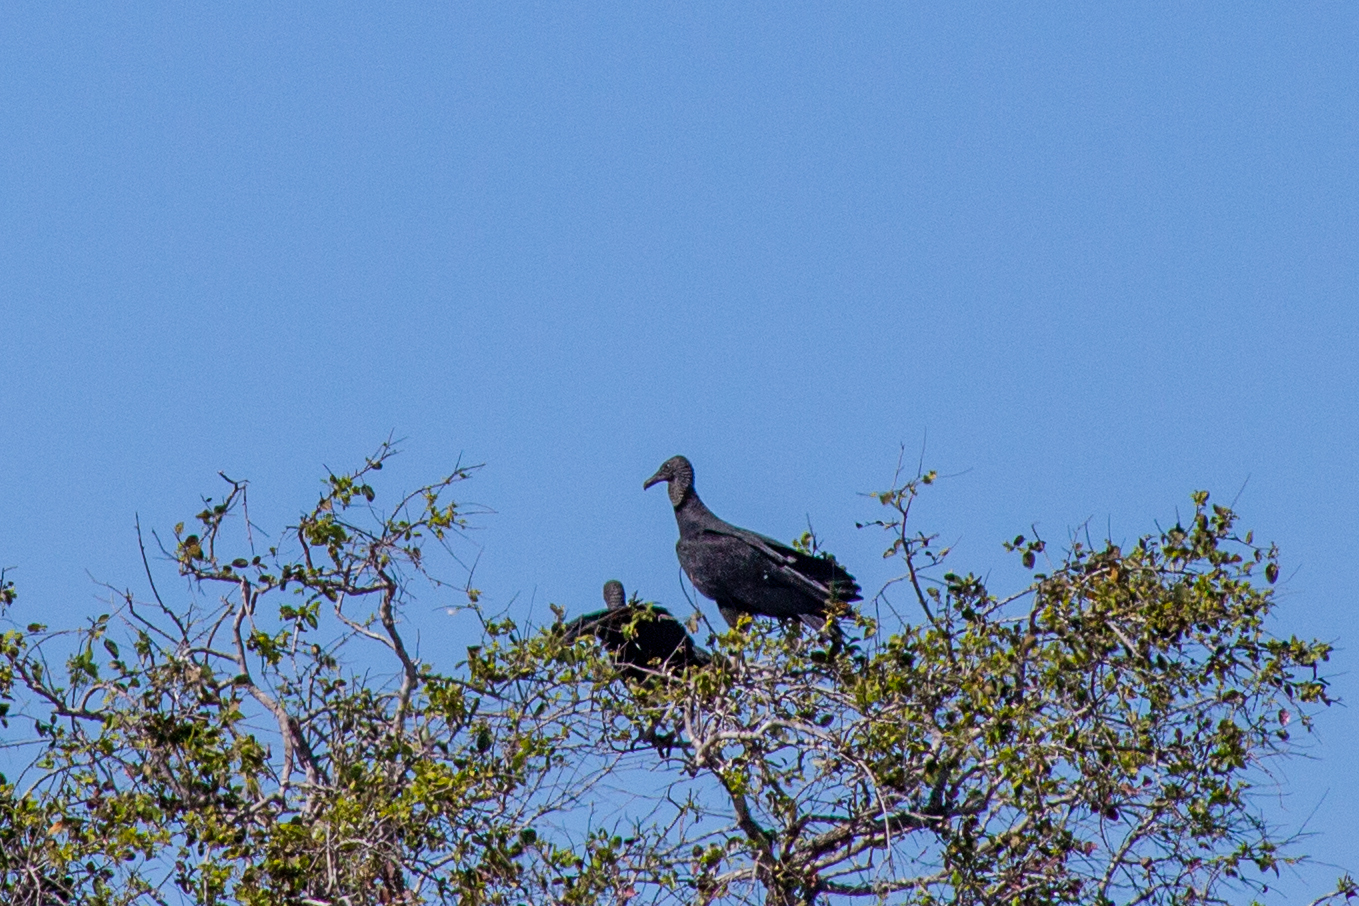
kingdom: Animalia
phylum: Chordata
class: Aves
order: Accipitriformes
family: Cathartidae
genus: Coragyps
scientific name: Coragyps atratus
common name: Black vulture
